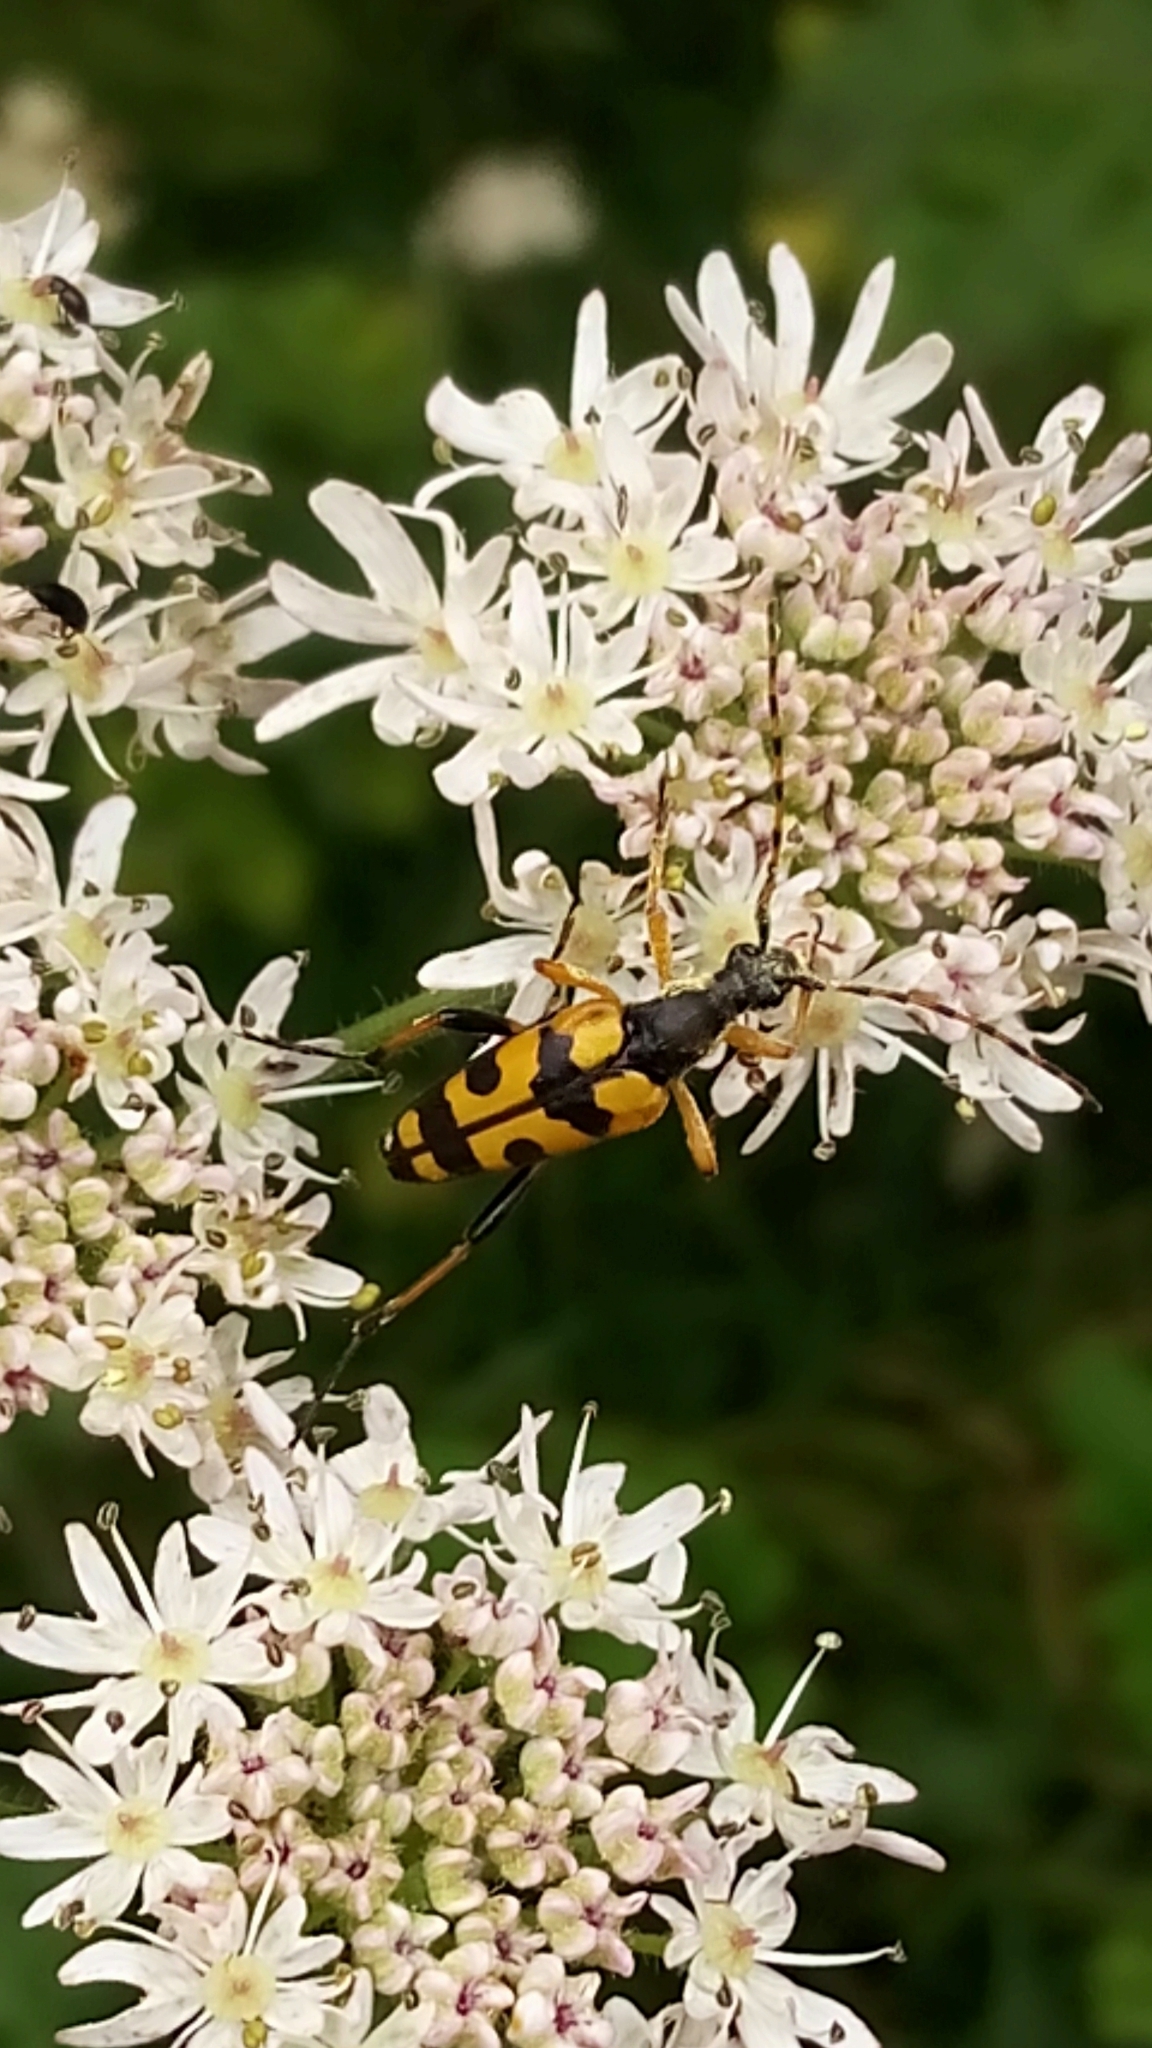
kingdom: Animalia
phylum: Arthropoda
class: Insecta
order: Coleoptera
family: Cerambycidae
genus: Rutpela
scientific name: Rutpela maculata
